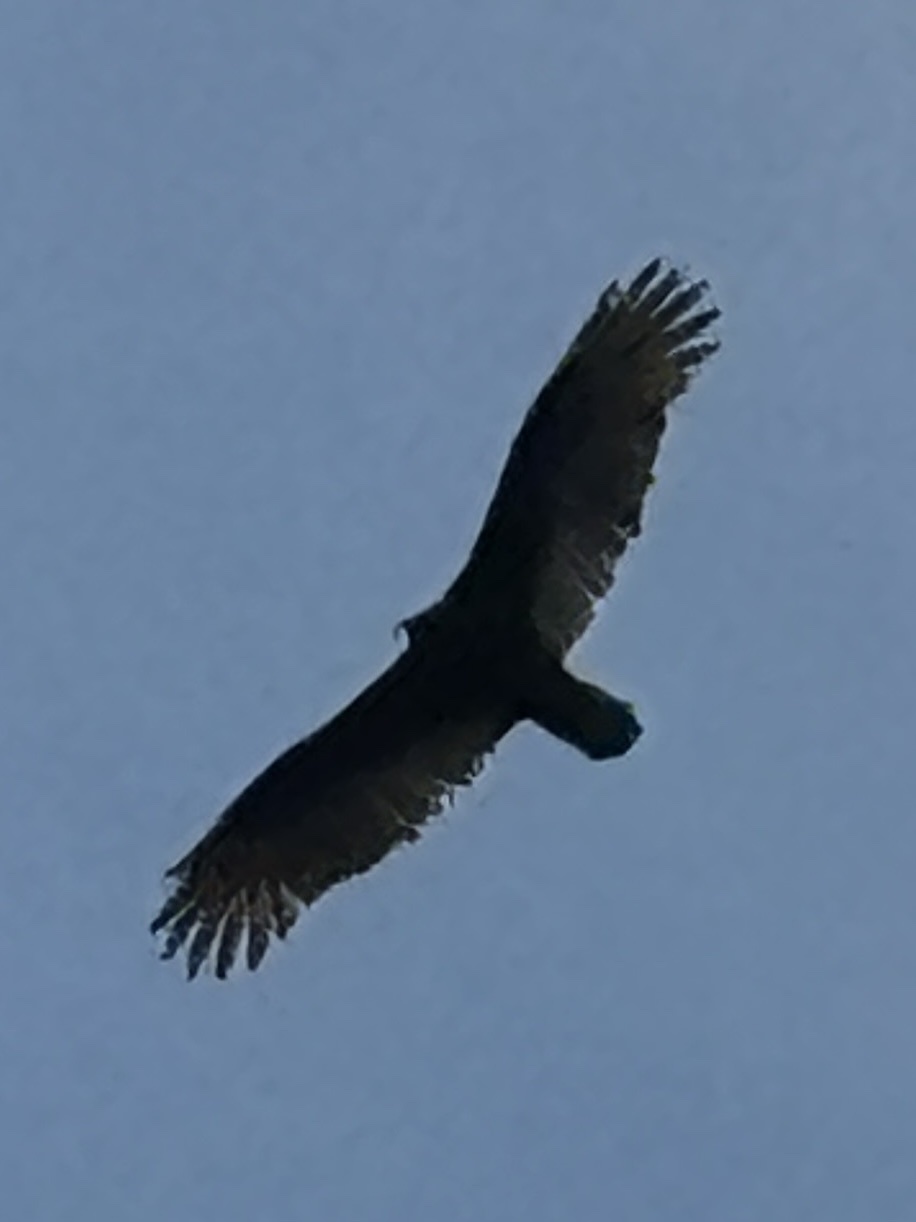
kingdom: Animalia
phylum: Chordata
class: Aves
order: Accipitriformes
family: Cathartidae
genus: Cathartes
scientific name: Cathartes aura
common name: Turkey vulture
